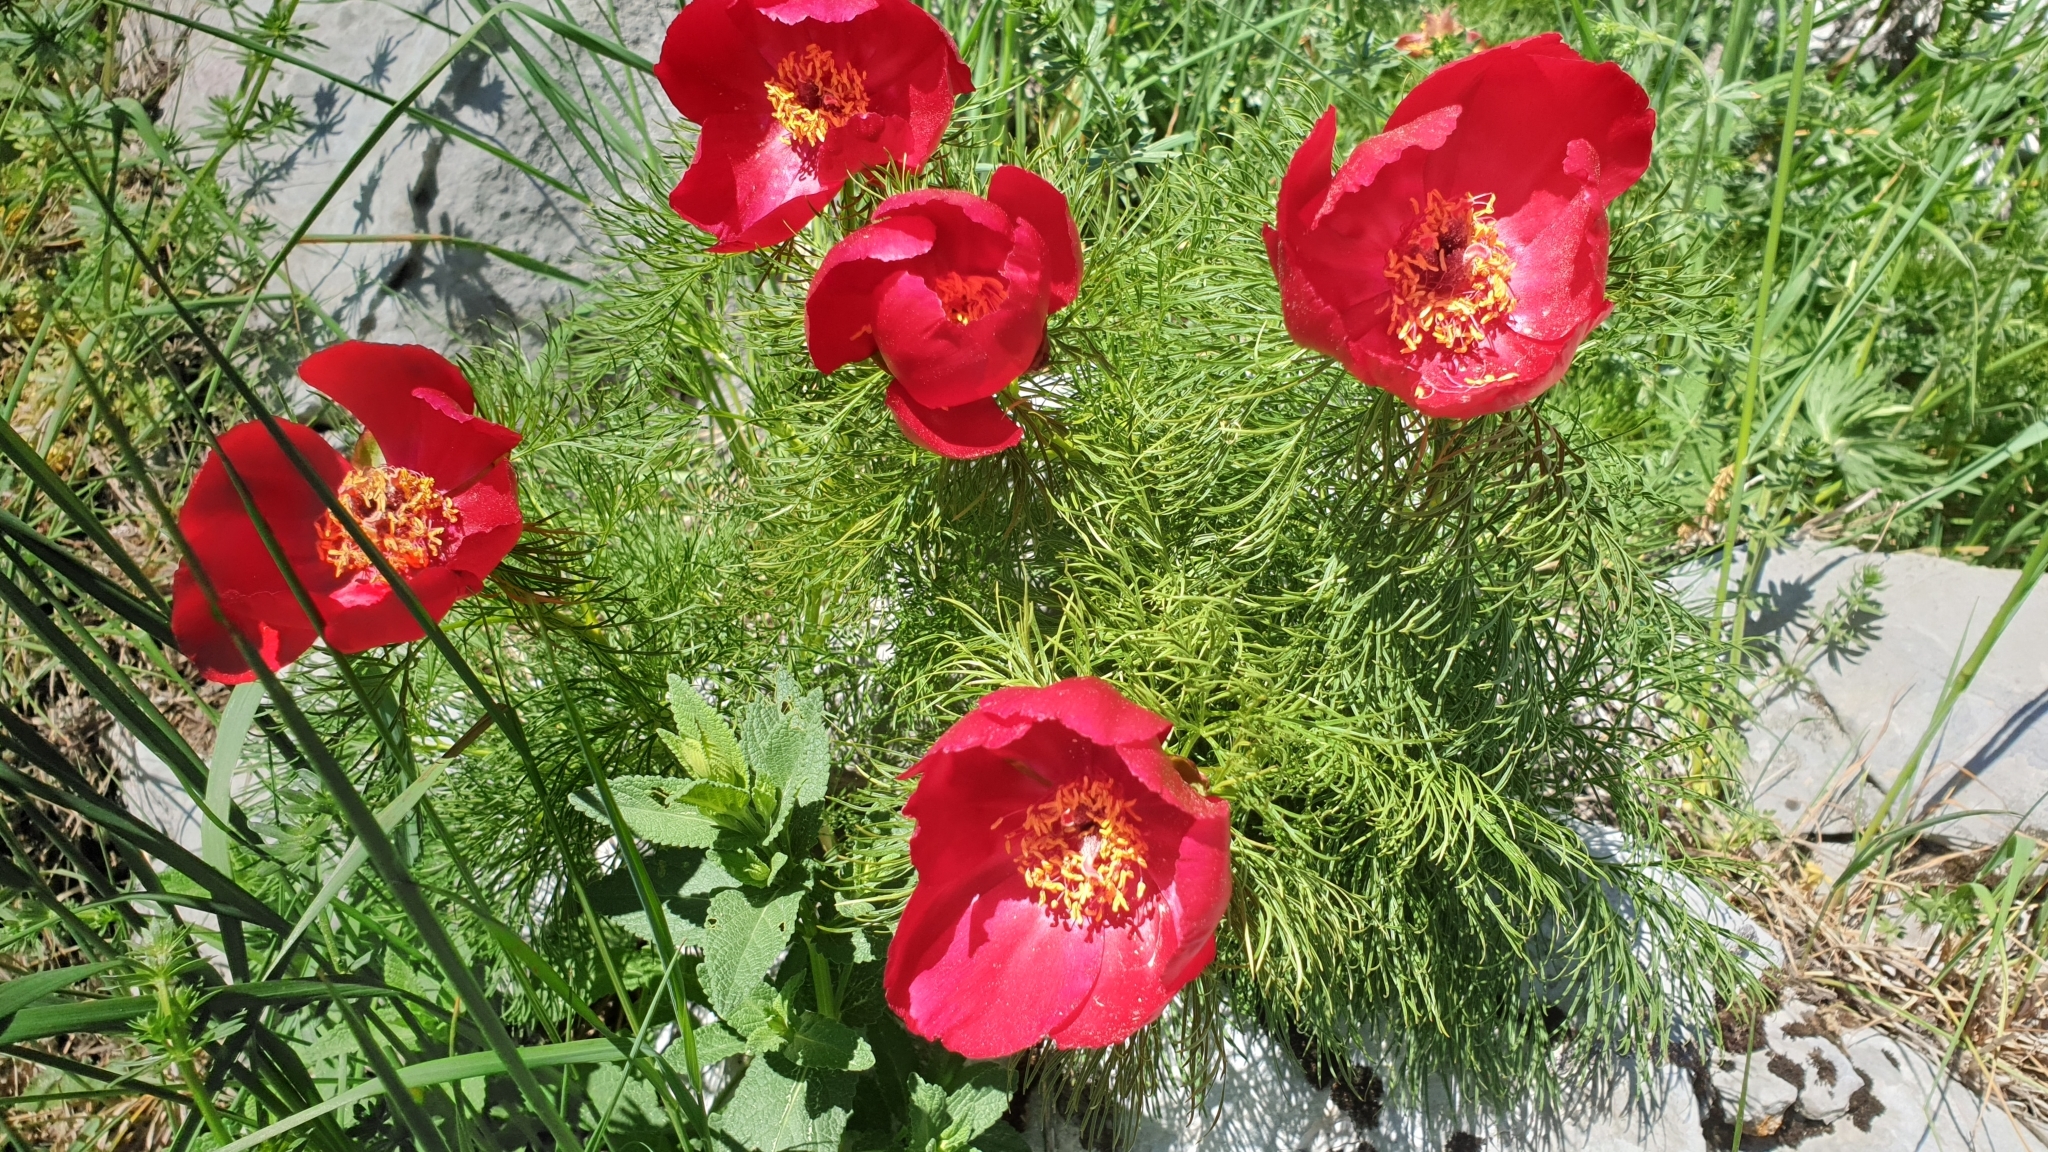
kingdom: Plantae
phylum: Tracheophyta
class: Magnoliopsida
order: Saxifragales
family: Paeoniaceae
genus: Paeonia
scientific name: Paeonia tenuifolia
